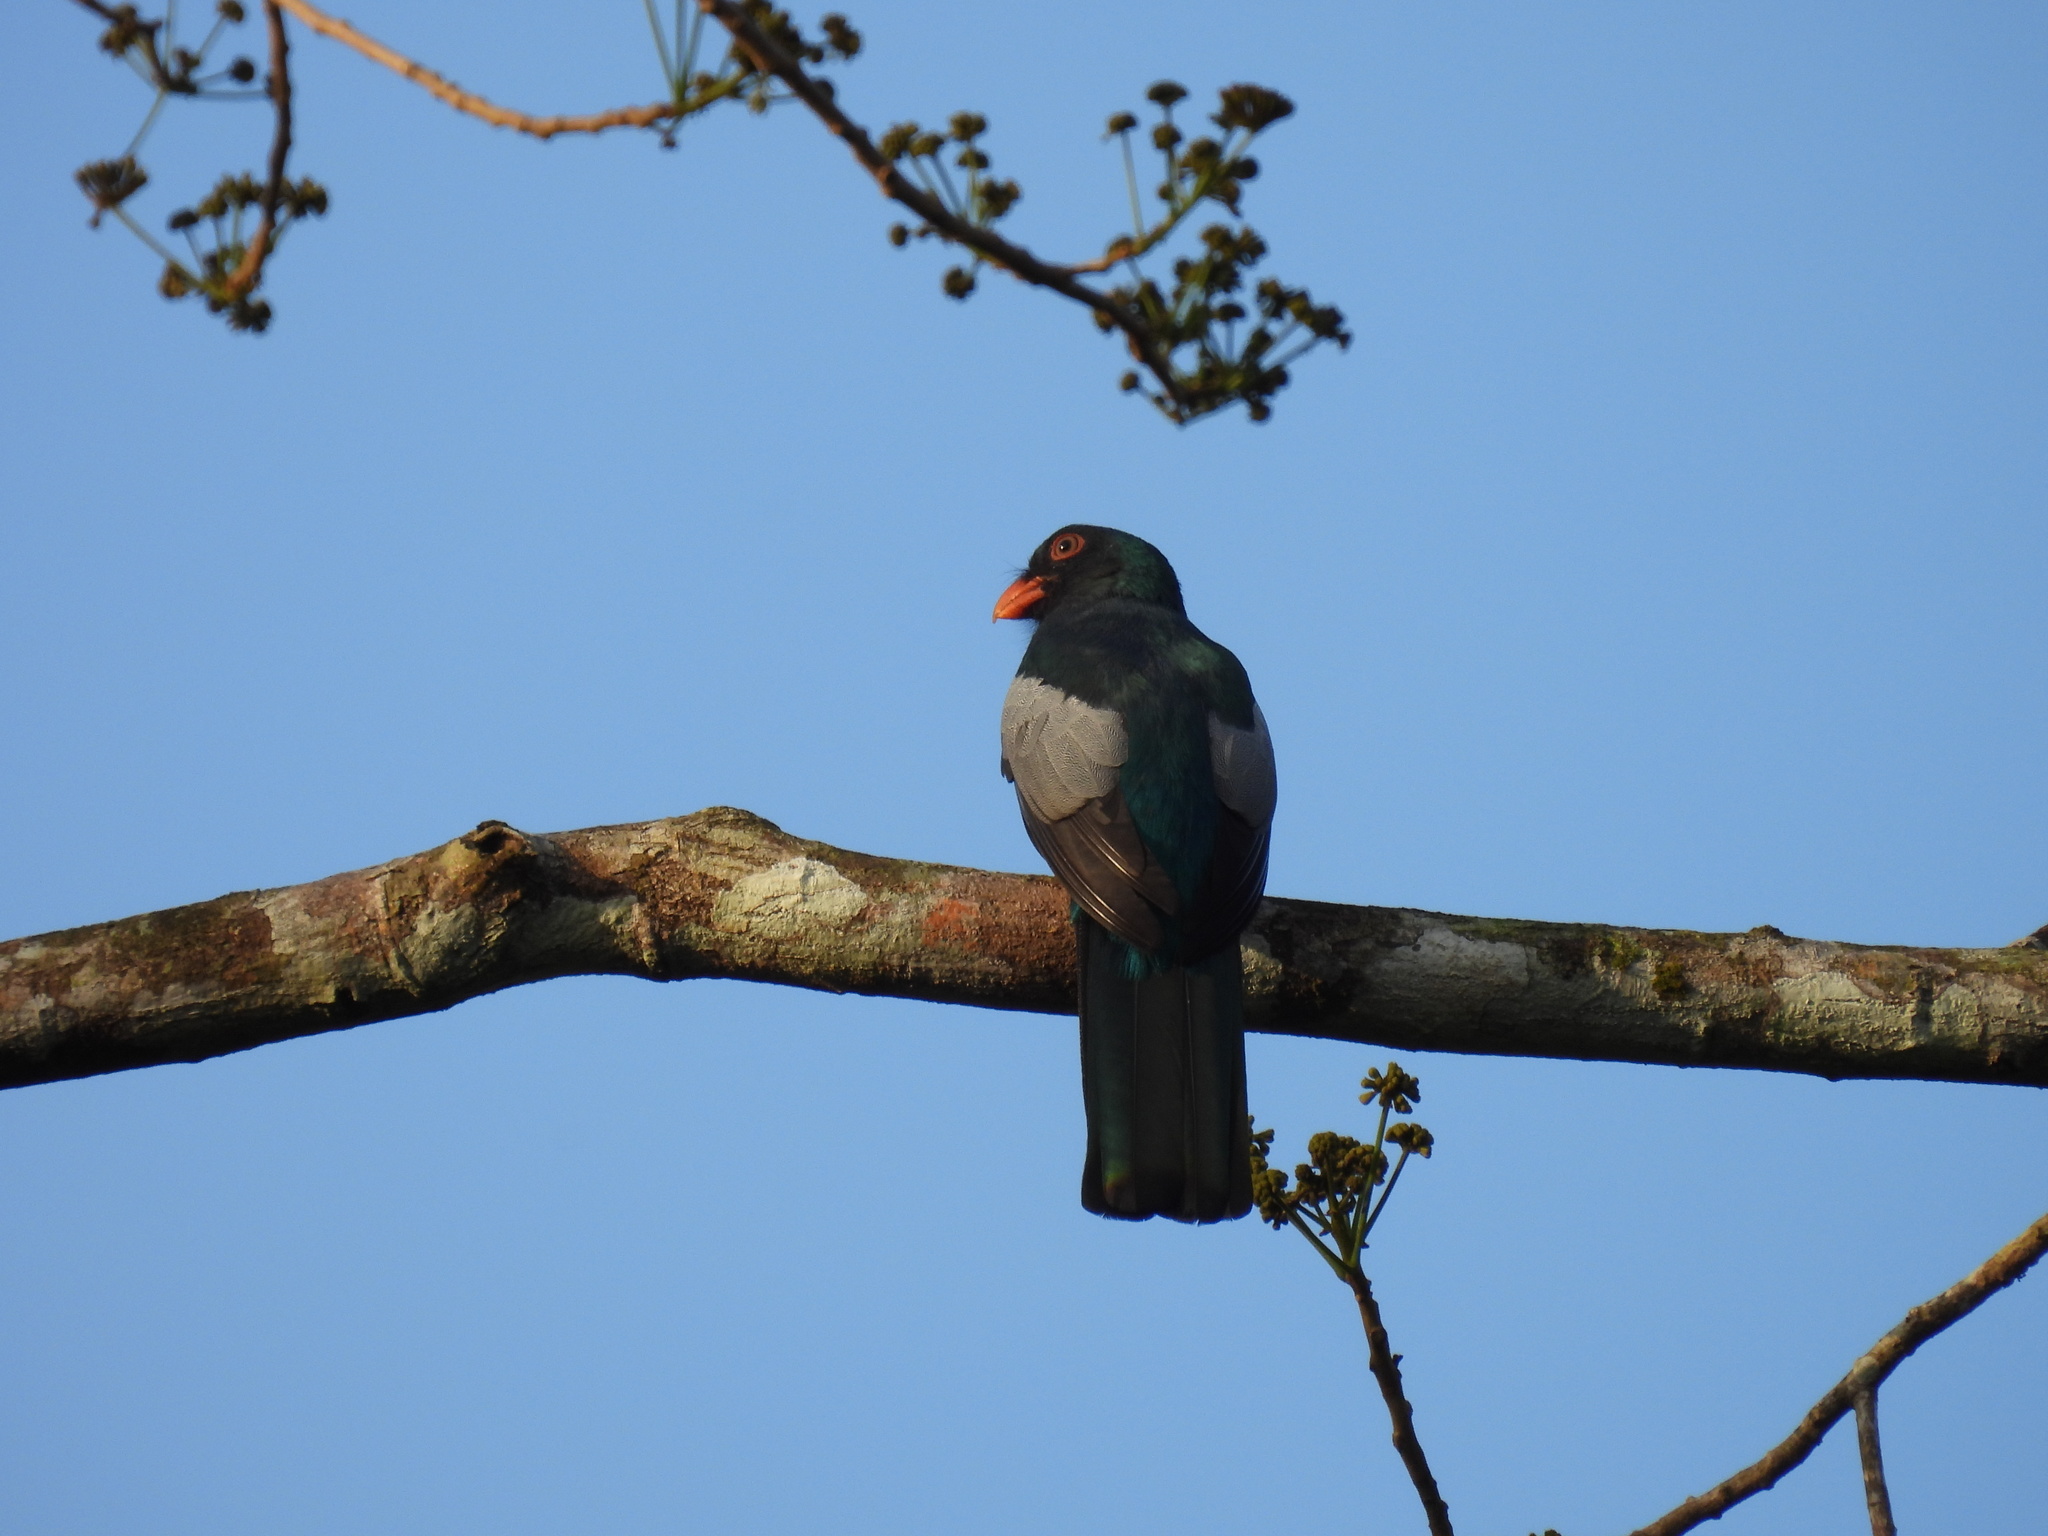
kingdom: Animalia
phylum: Chordata
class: Aves
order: Trogoniformes
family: Trogonidae
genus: Trogon
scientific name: Trogon massena
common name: Slaty-tailed trogon
